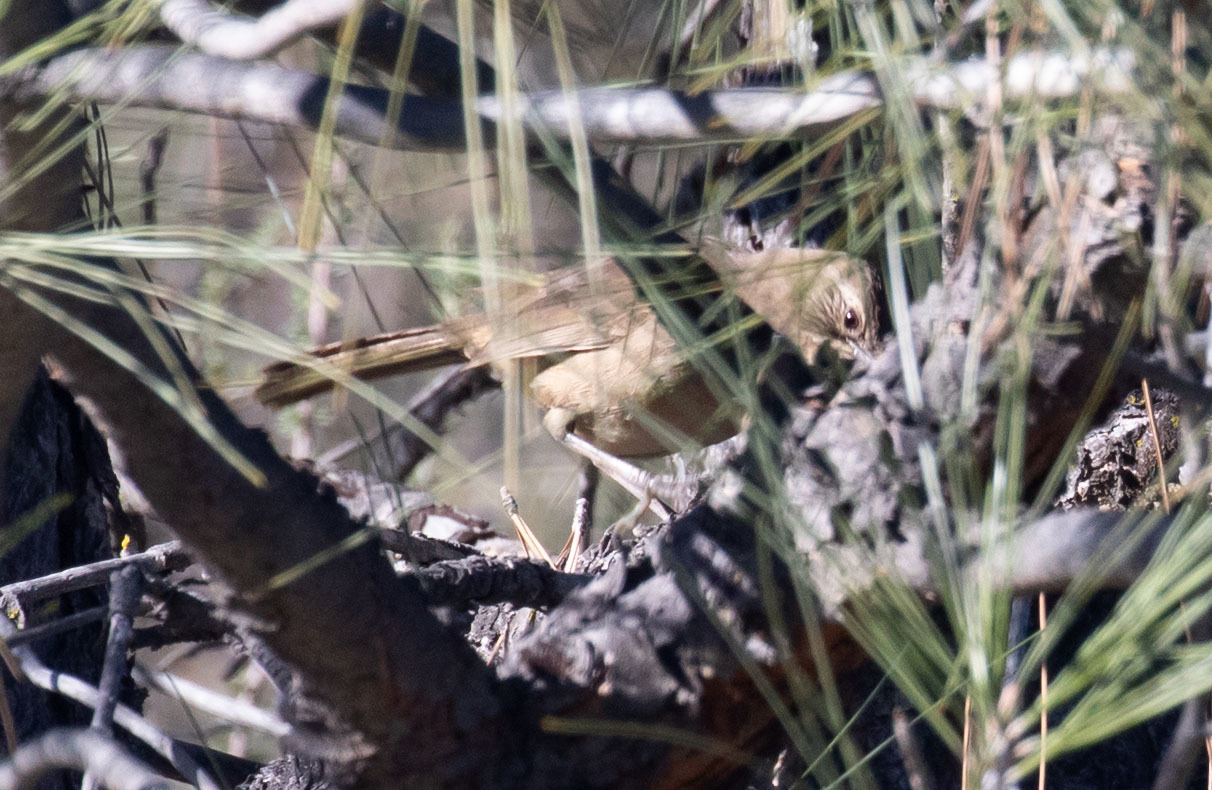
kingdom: Animalia
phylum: Chordata
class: Aves
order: Passeriformes
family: Mimidae
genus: Toxostoma
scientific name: Toxostoma redivivum
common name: California thrasher
